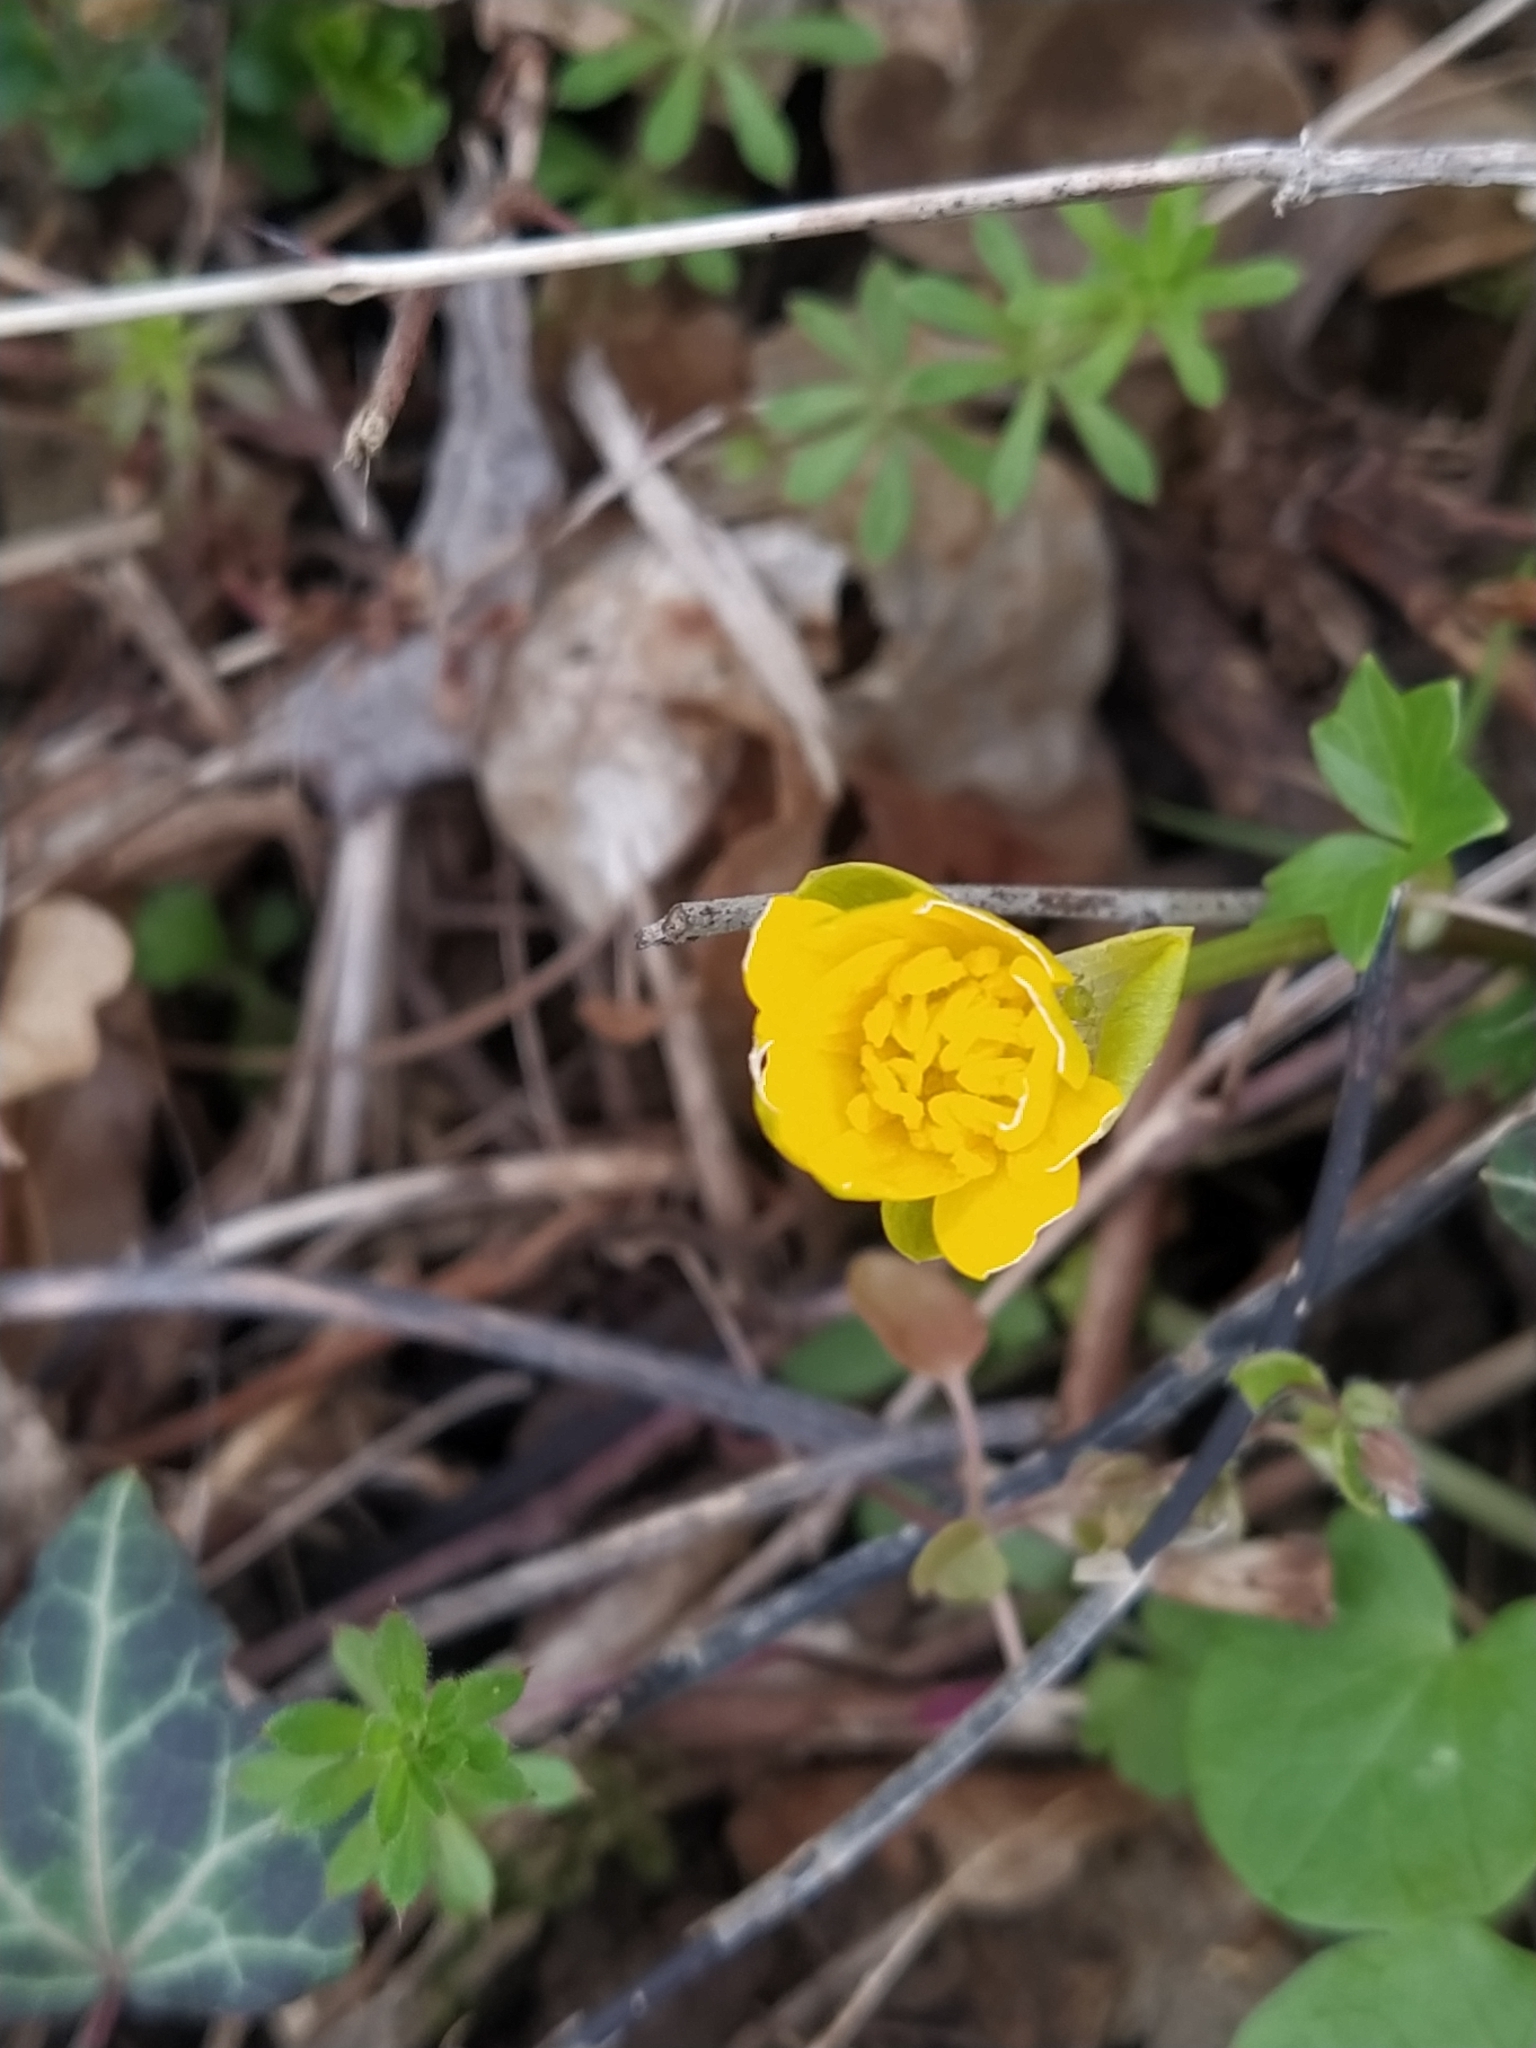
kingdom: Plantae
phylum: Tracheophyta
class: Magnoliopsida
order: Ranunculales
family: Ranunculaceae
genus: Ficaria
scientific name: Ficaria verna
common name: Lesser celandine
